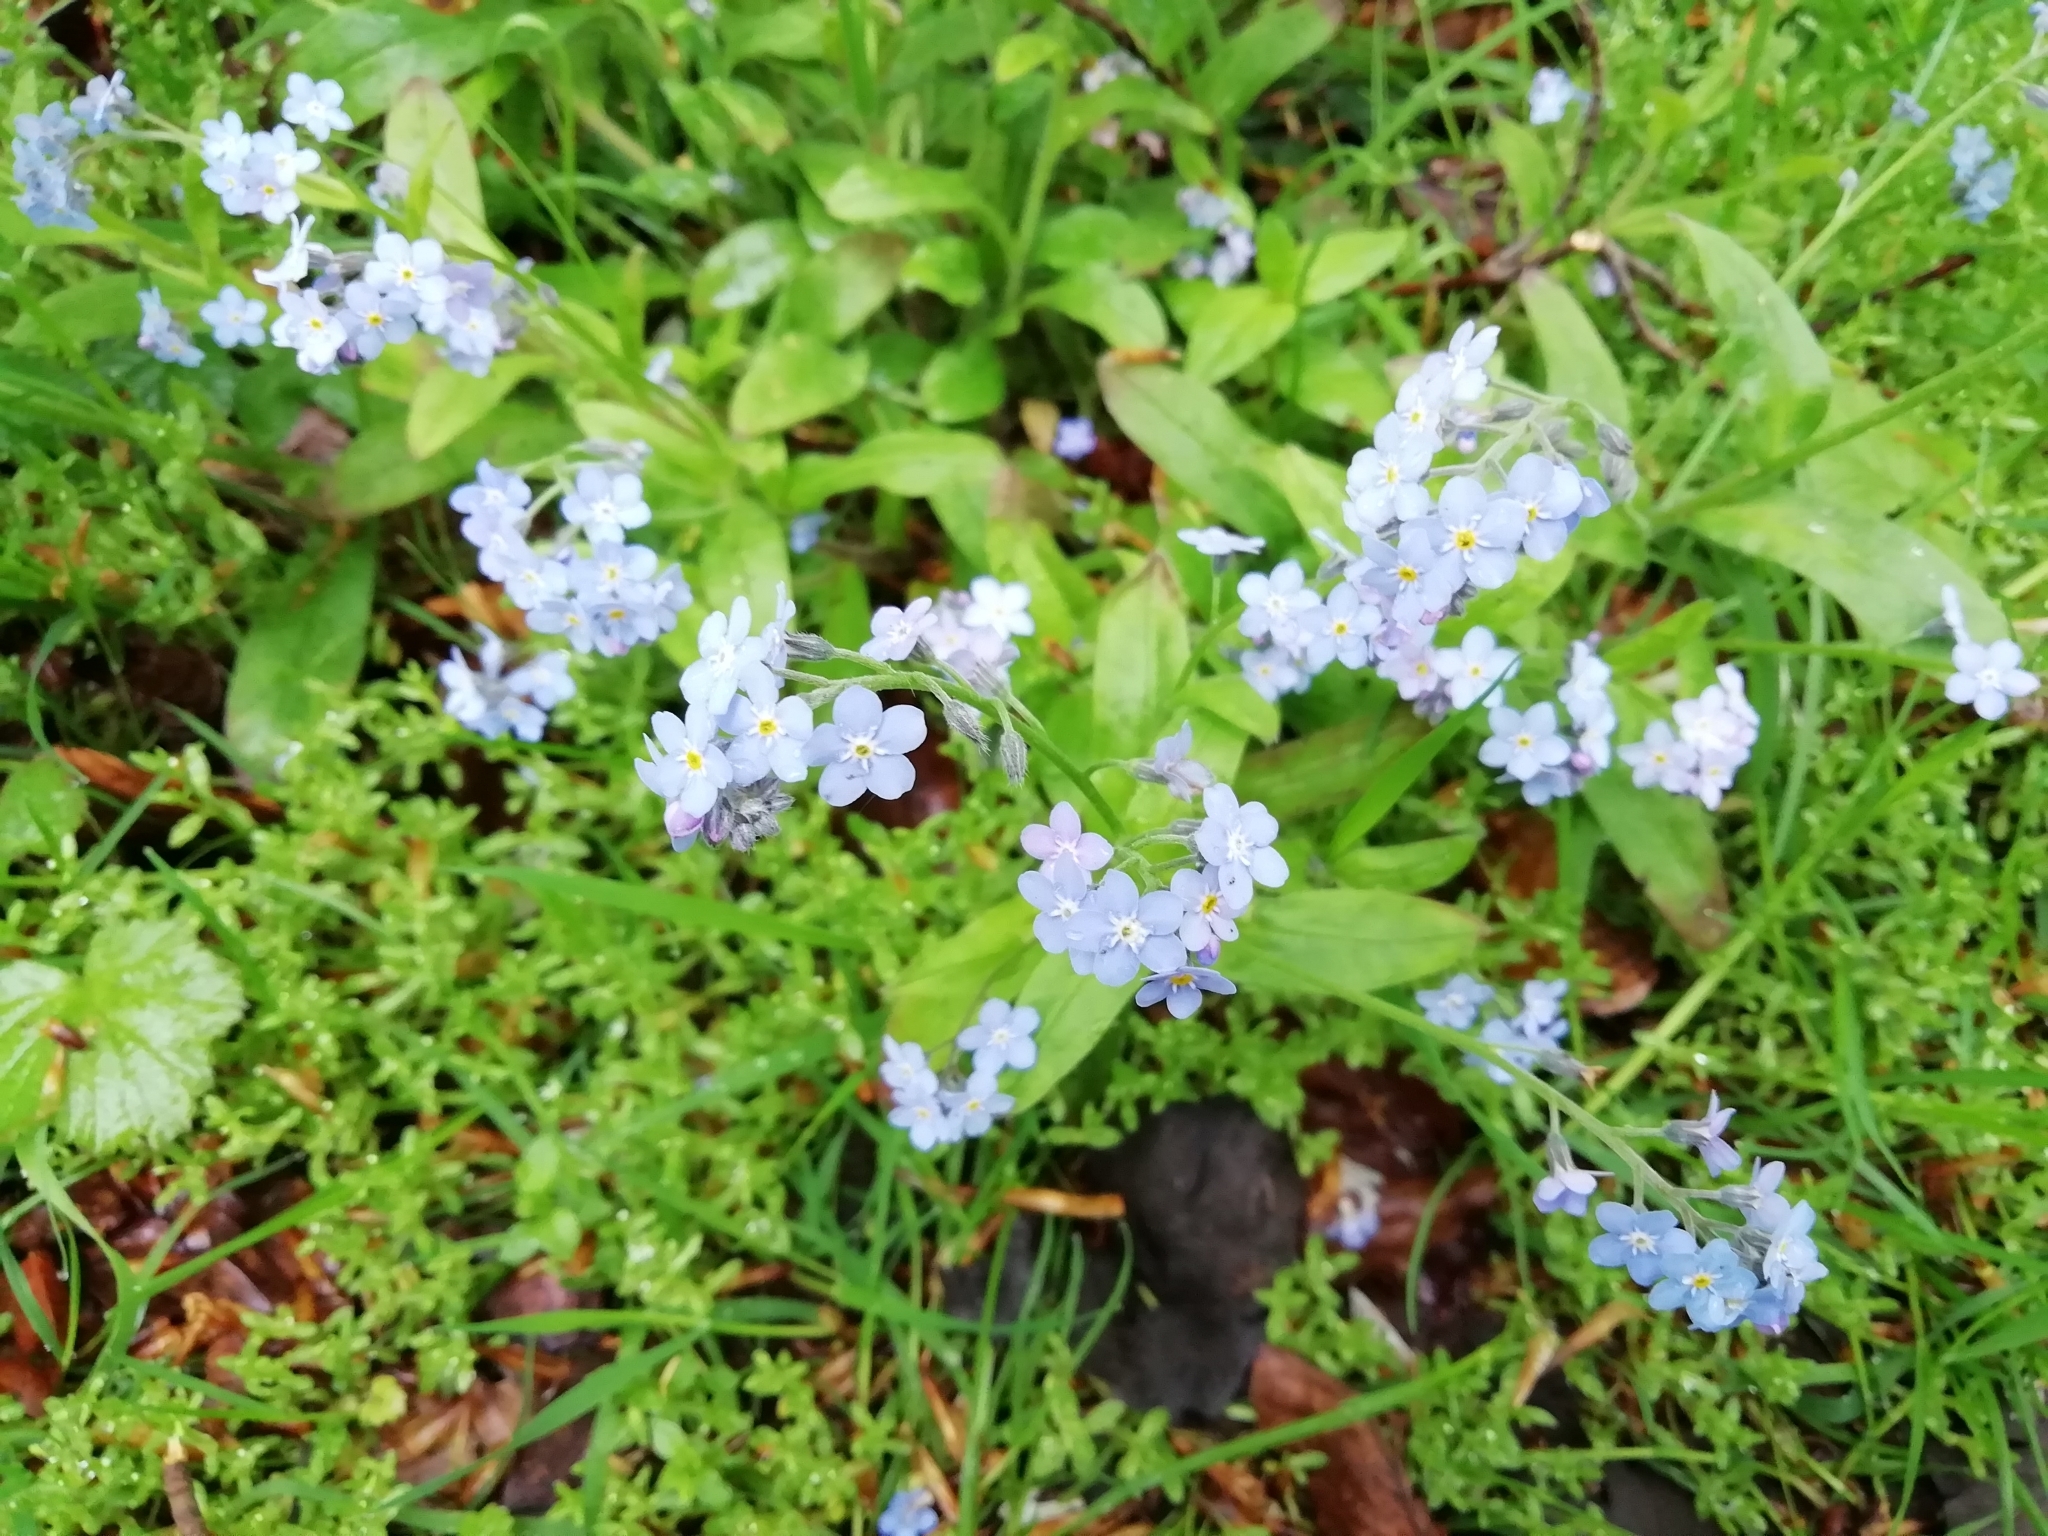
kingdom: Plantae
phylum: Tracheophyta
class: Magnoliopsida
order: Boraginales
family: Boraginaceae
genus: Myosotis
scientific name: Myosotis sylvatica
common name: Wood forget-me-not
